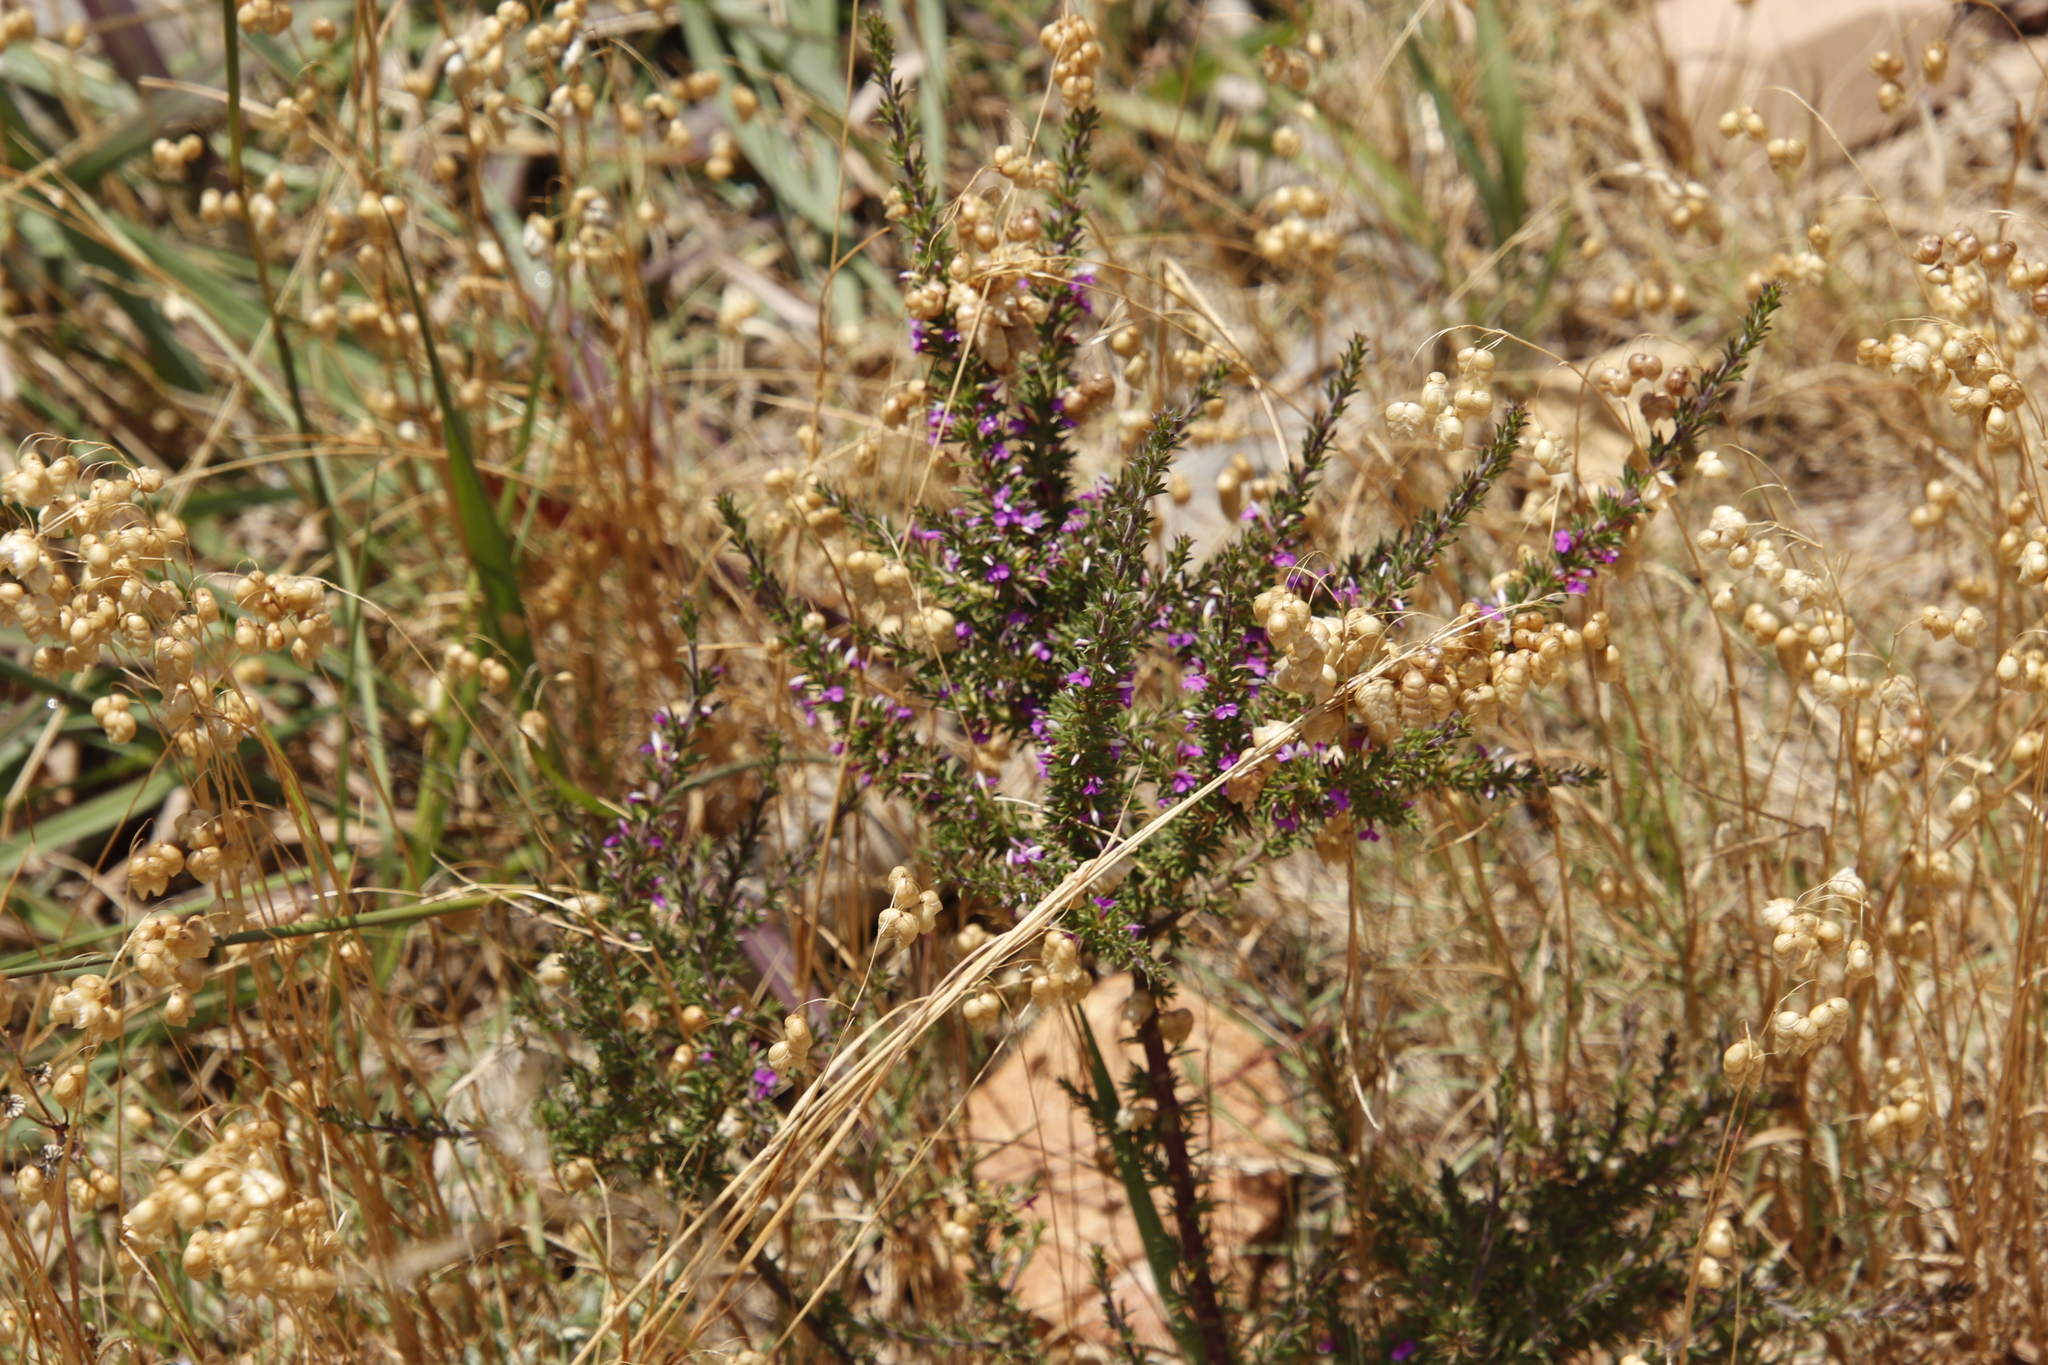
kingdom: Plantae
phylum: Tracheophyta
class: Magnoliopsida
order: Fabales
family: Polygalaceae
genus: Muraltia
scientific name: Muraltia heisteria
